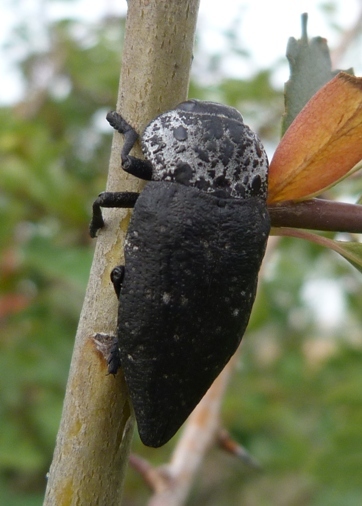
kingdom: Animalia
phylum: Arthropoda
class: Insecta
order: Coleoptera
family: Buprestidae
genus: Capnodis
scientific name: Capnodis tenebrionis
